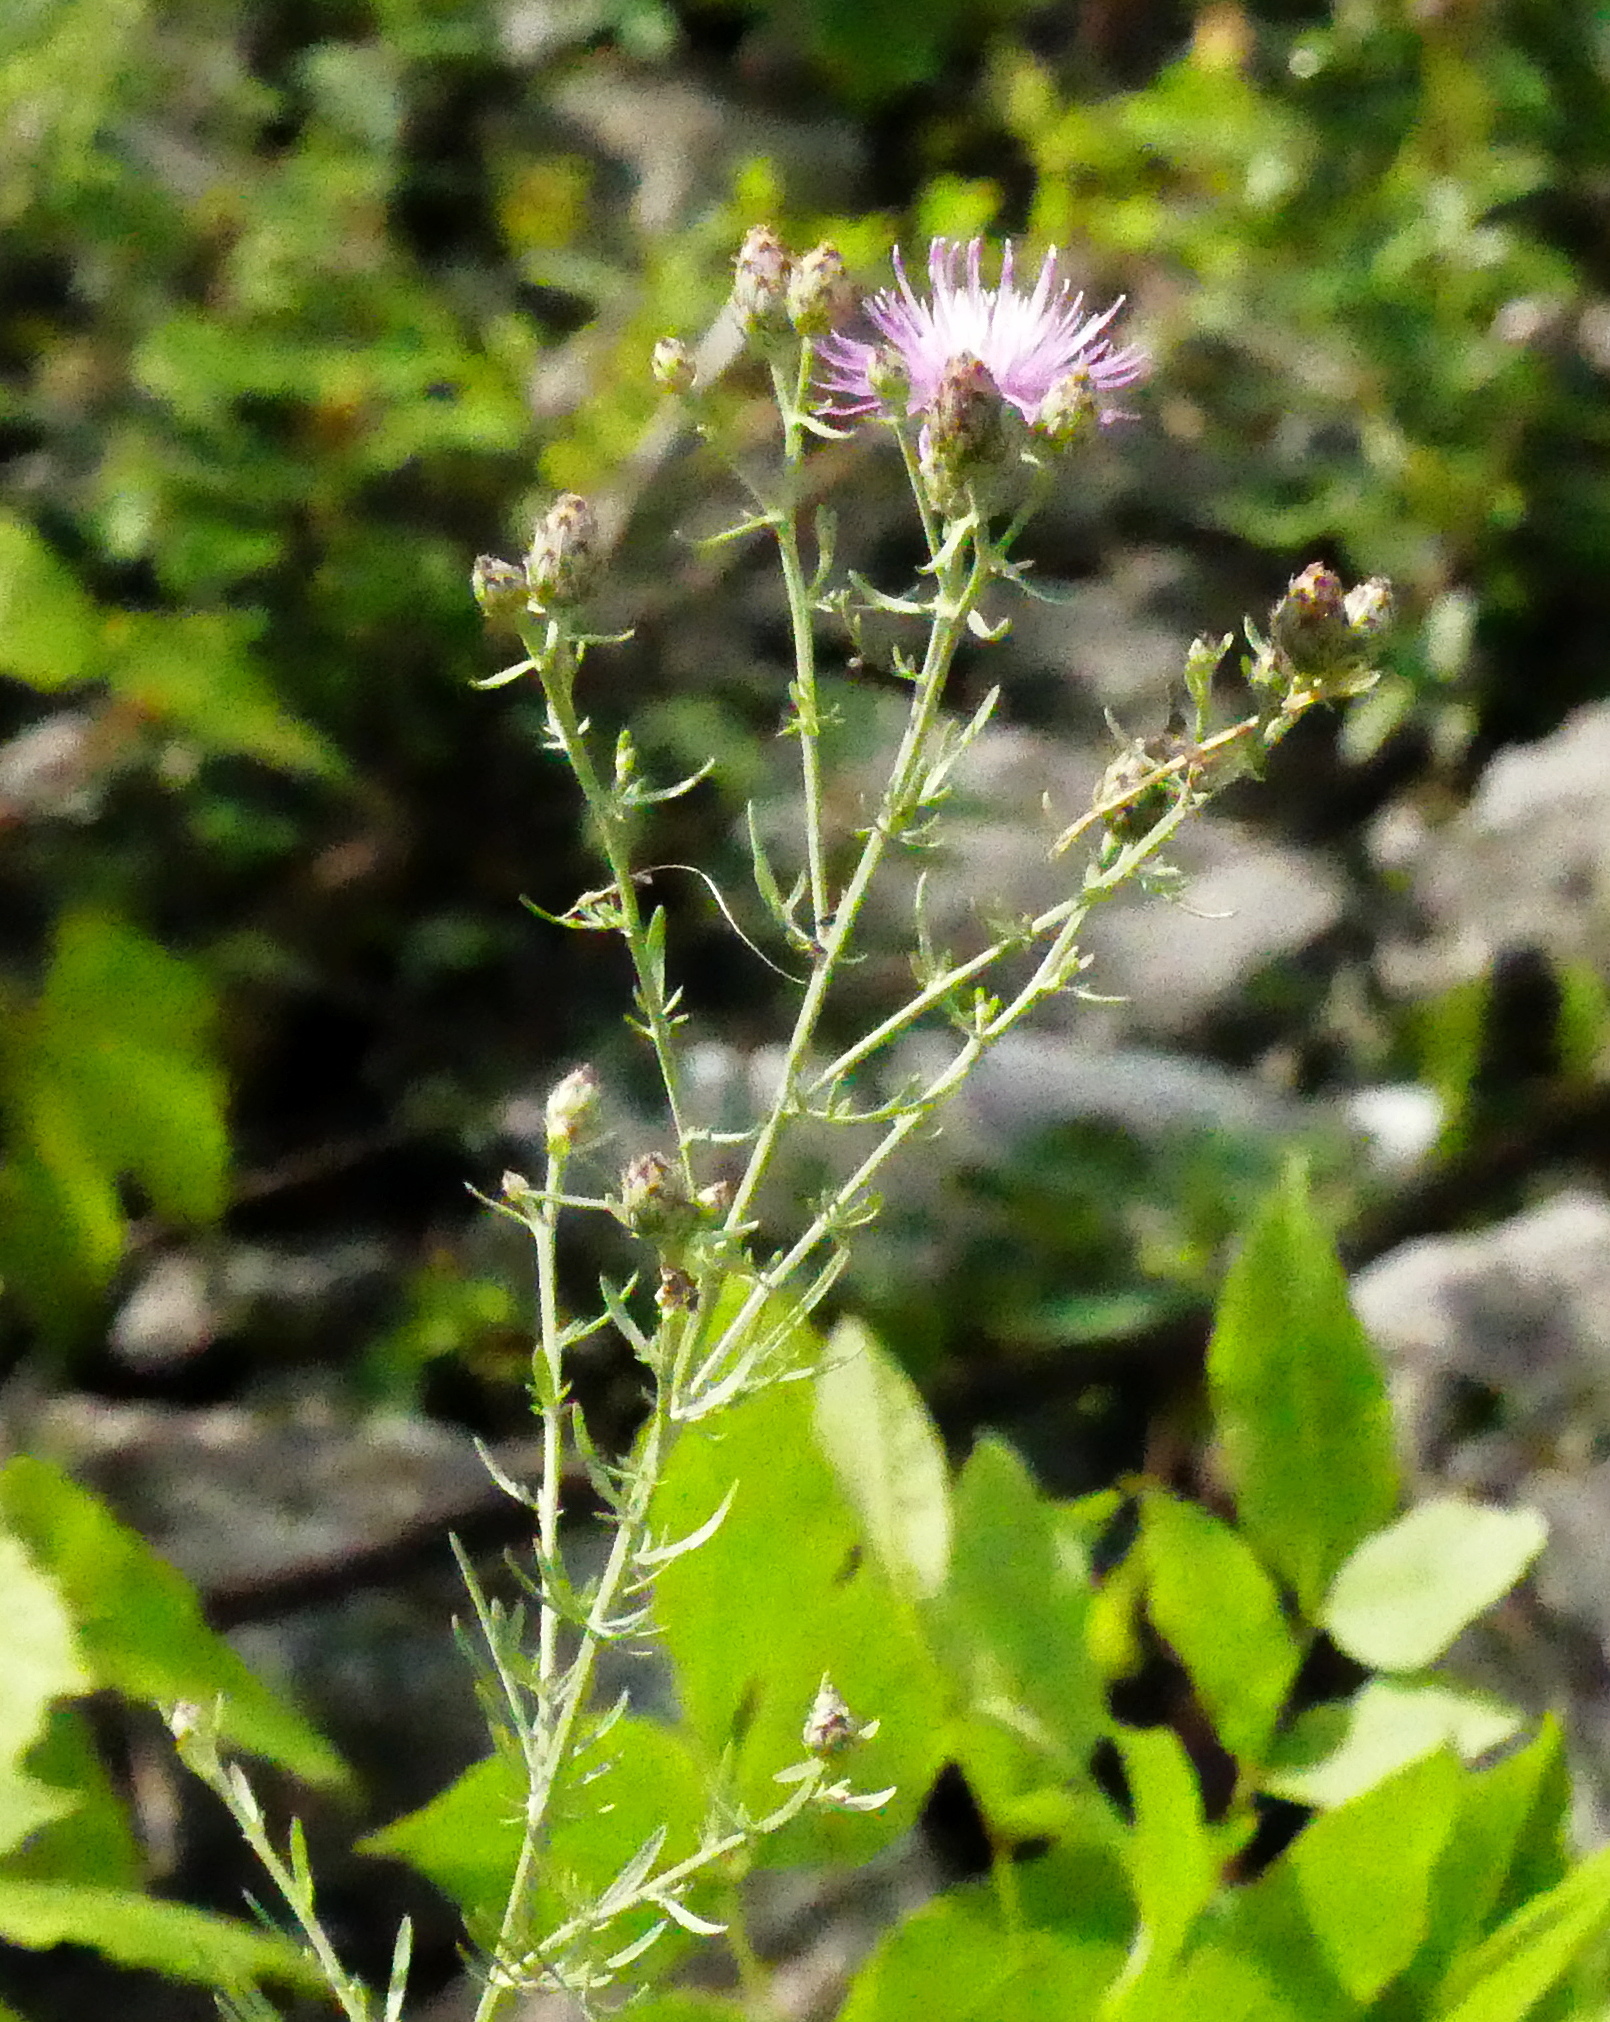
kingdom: Plantae
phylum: Tracheophyta
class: Magnoliopsida
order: Asterales
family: Asteraceae
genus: Centaurea
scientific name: Centaurea stoebe
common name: Spotted knapweed
